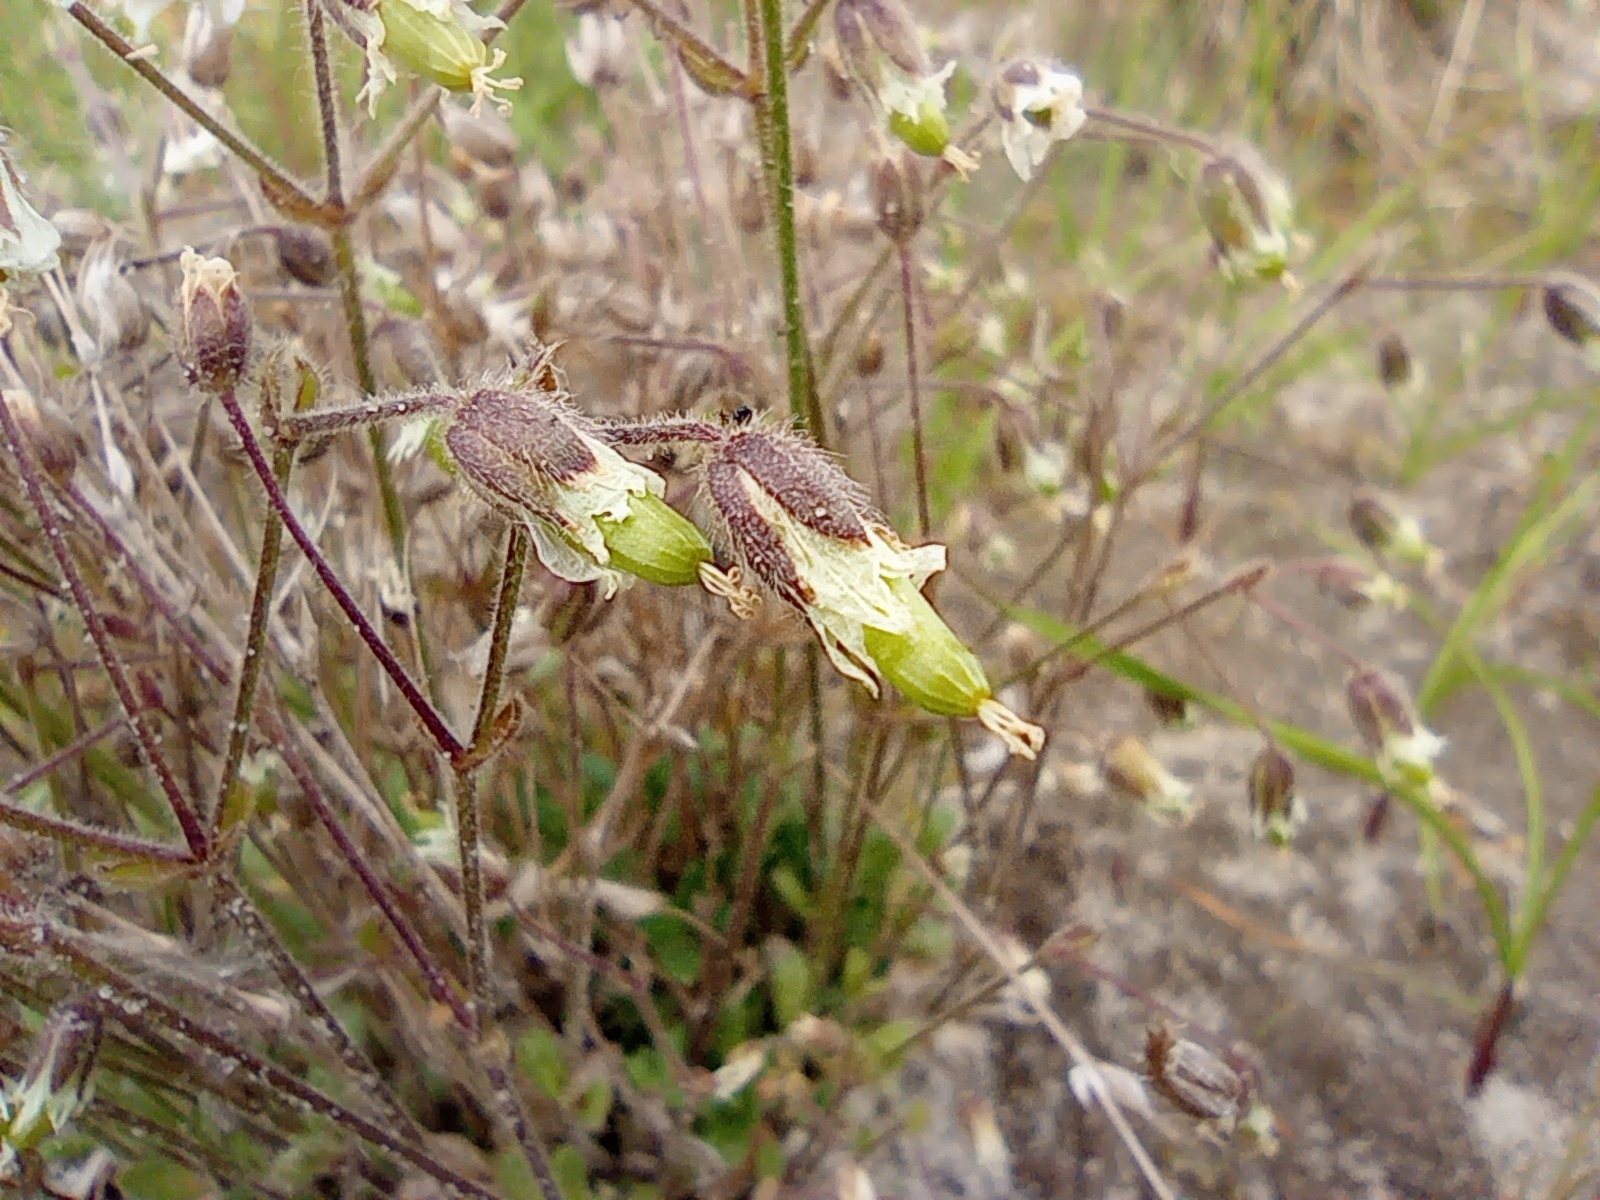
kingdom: Plantae
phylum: Tracheophyta
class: Magnoliopsida
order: Caryophyllales
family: Caryophyllaceae
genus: Cerastium
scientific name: Cerastium beeringianum
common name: Bering mouse-ear chickweed
